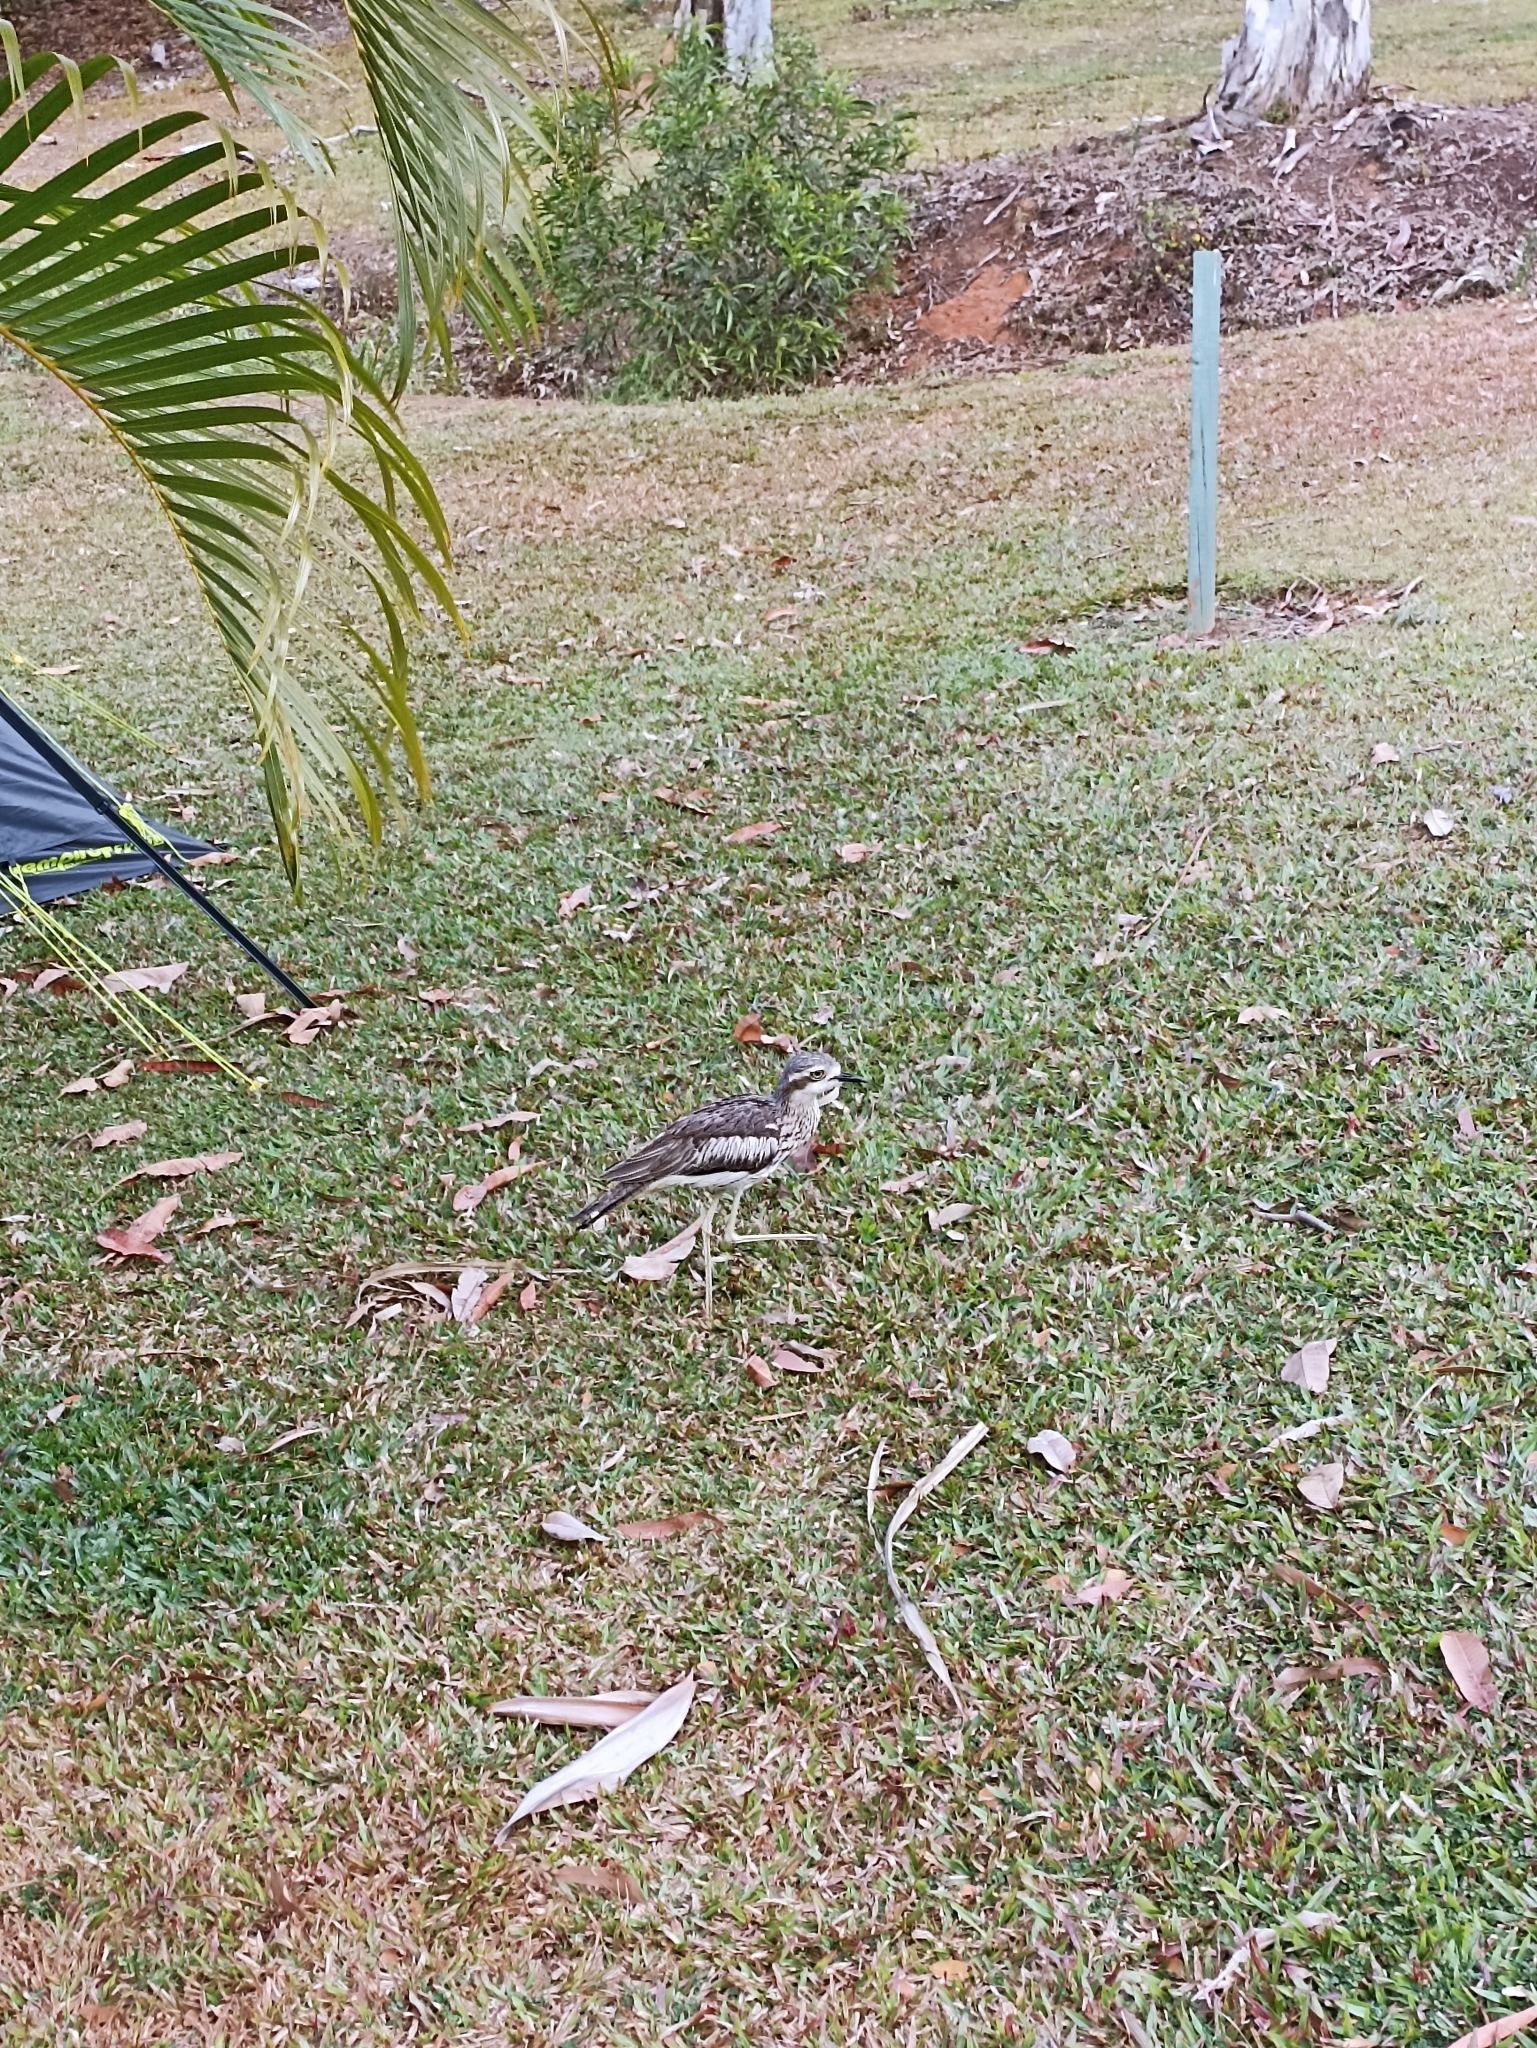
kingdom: Animalia
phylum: Chordata
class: Aves
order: Charadriiformes
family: Burhinidae
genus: Burhinus
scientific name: Burhinus grallarius
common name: Bush stone-curlew
